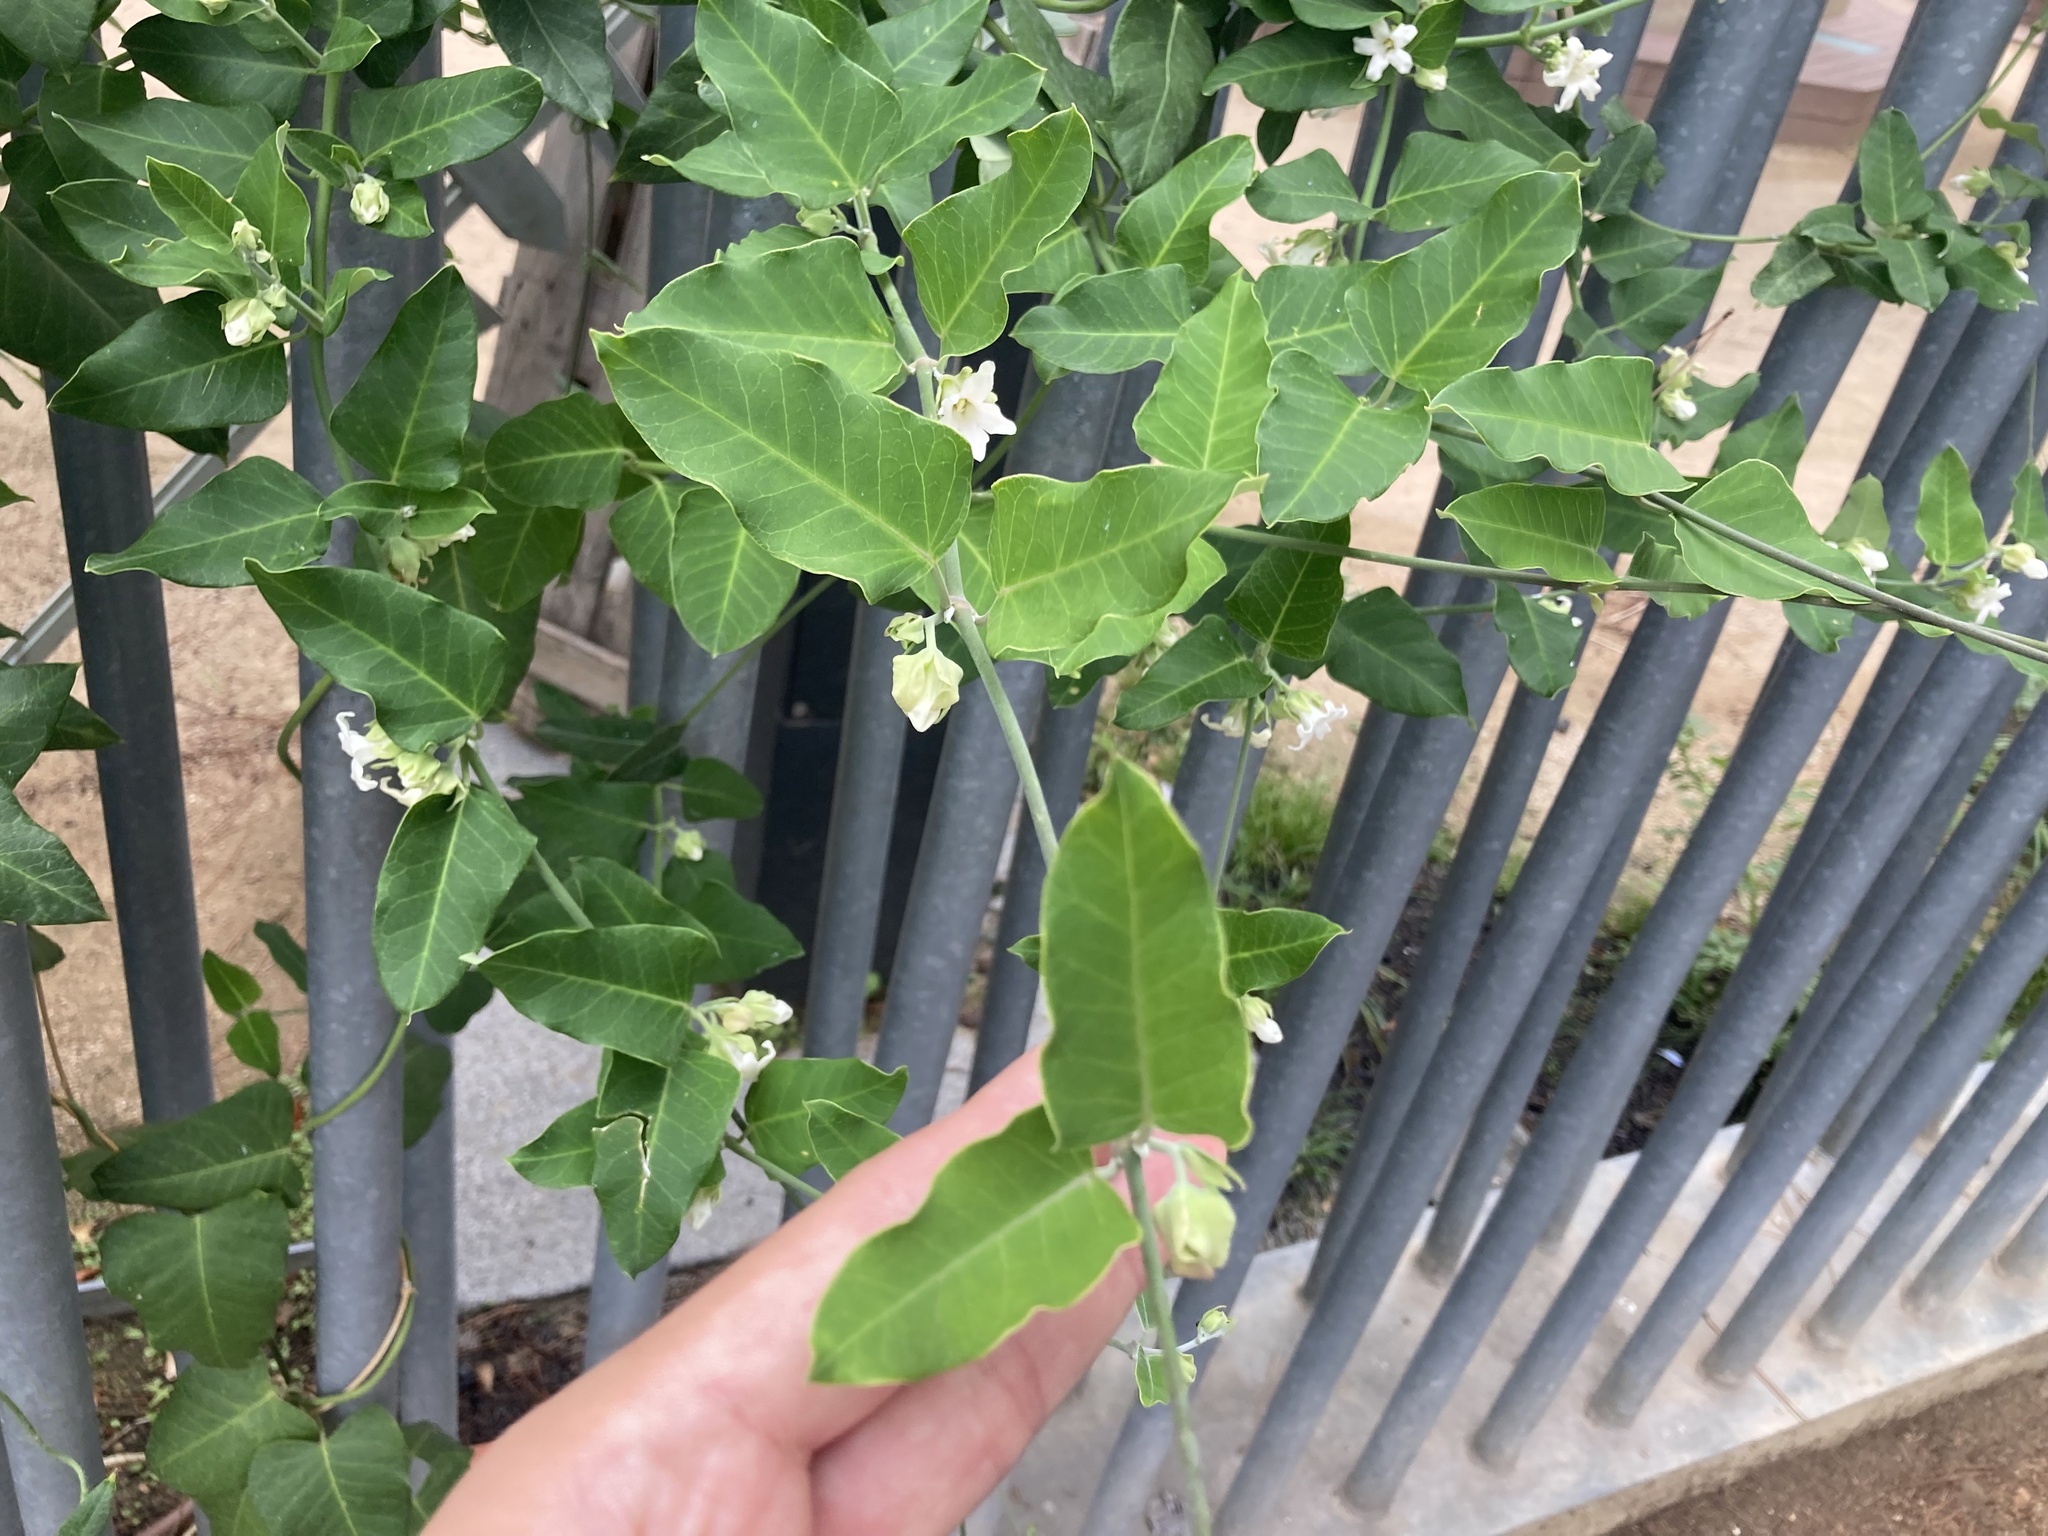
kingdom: Plantae
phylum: Tracheophyta
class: Magnoliopsida
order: Gentianales
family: Apocynaceae
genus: Araujia
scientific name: Araujia sericifera
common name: White bladderflower
